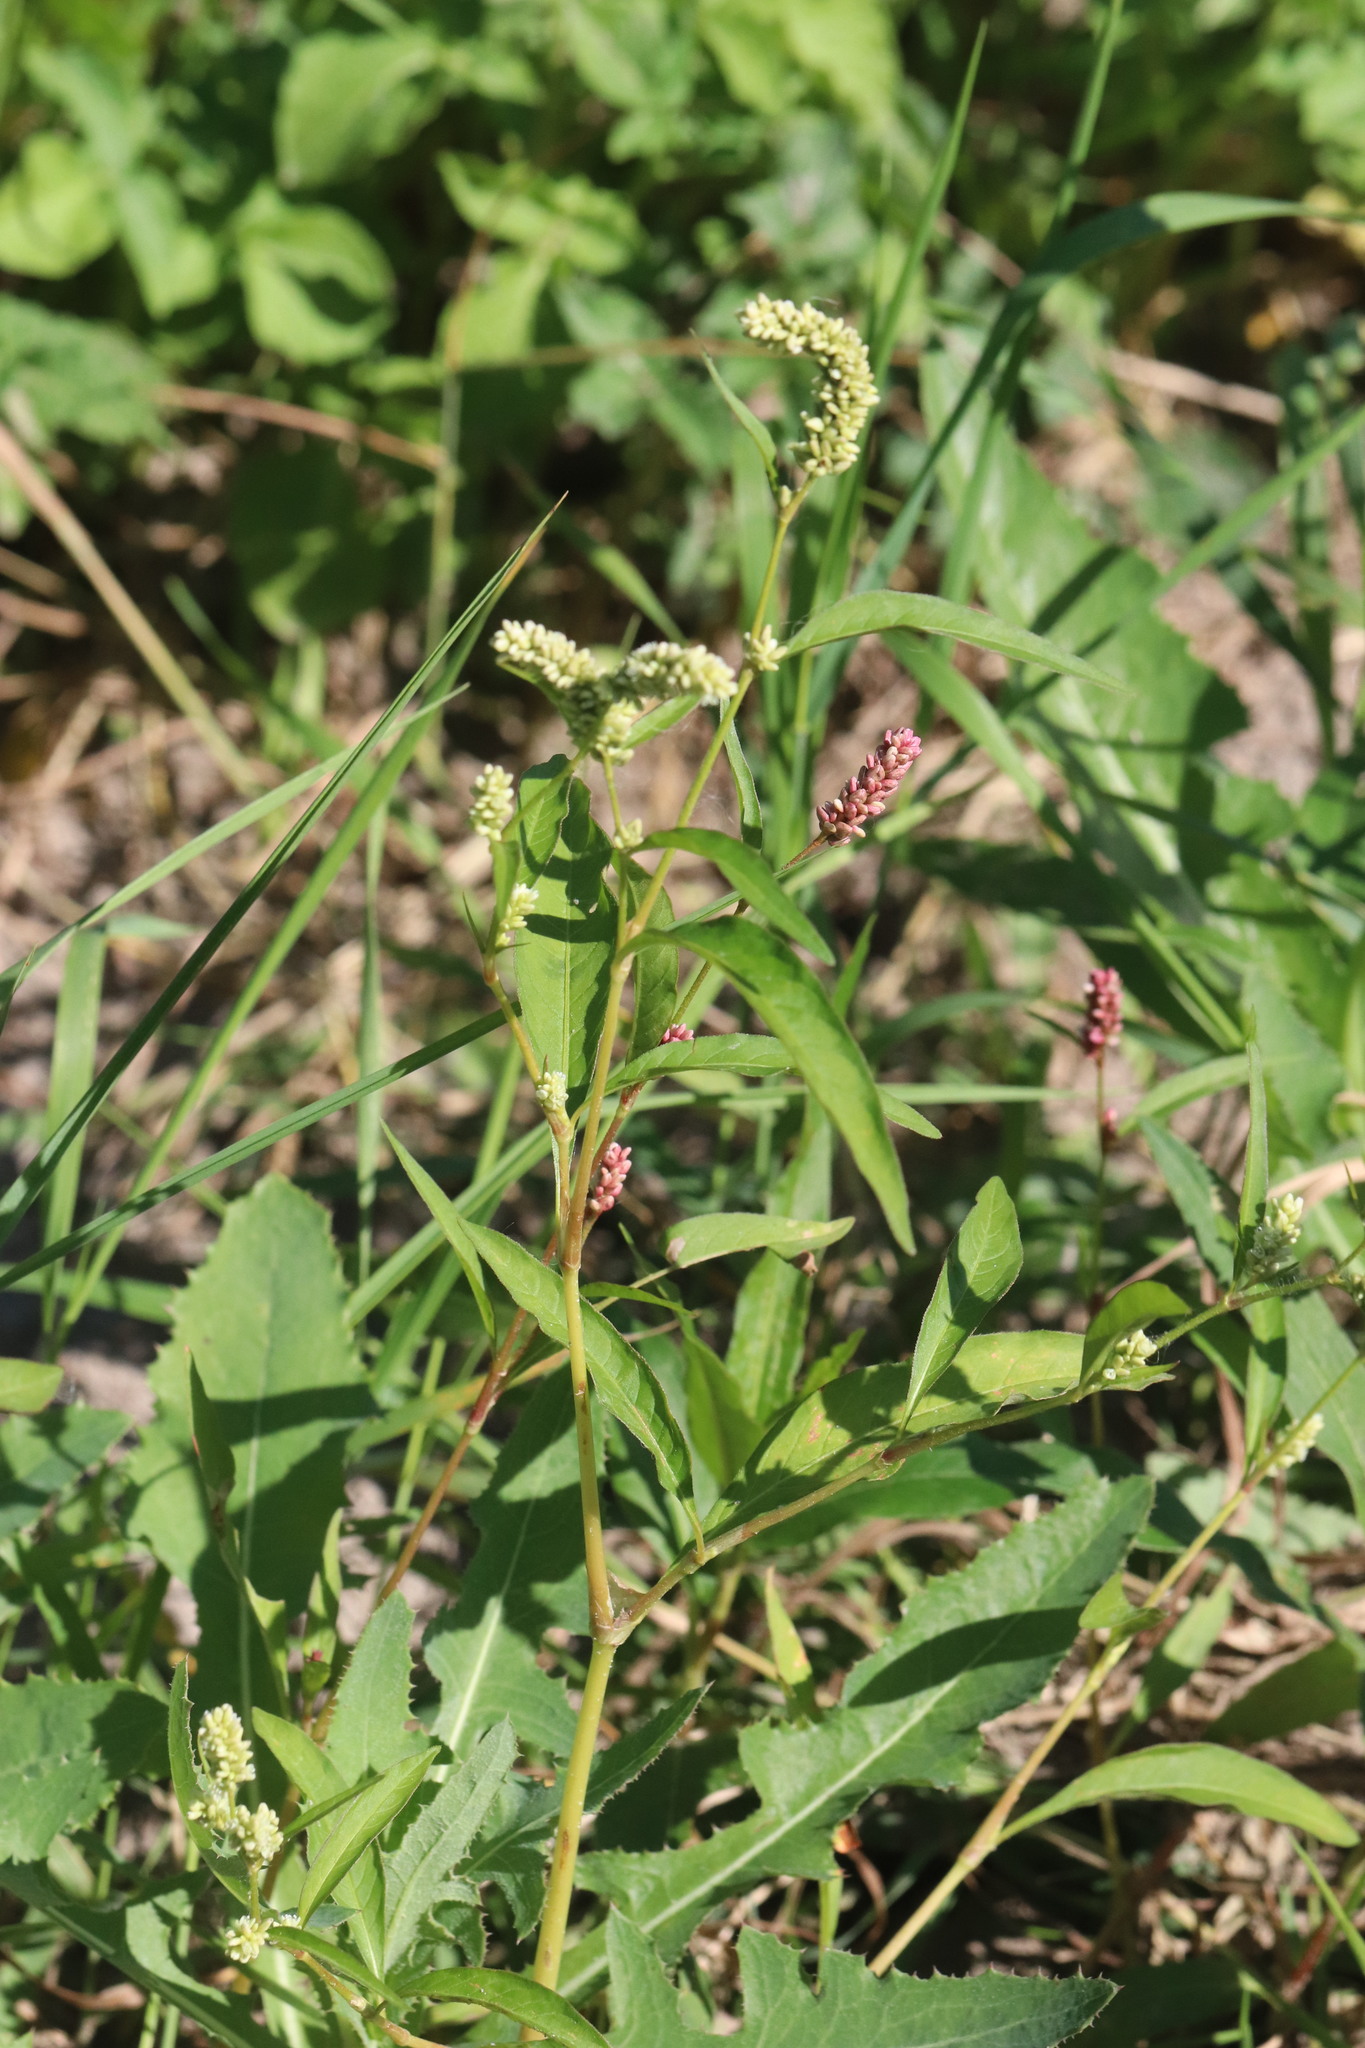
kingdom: Plantae
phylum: Tracheophyta
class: Magnoliopsida
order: Caryophyllales
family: Polygonaceae
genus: Persicaria
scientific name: Persicaria lapathifolia
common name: Curlytop knotweed
